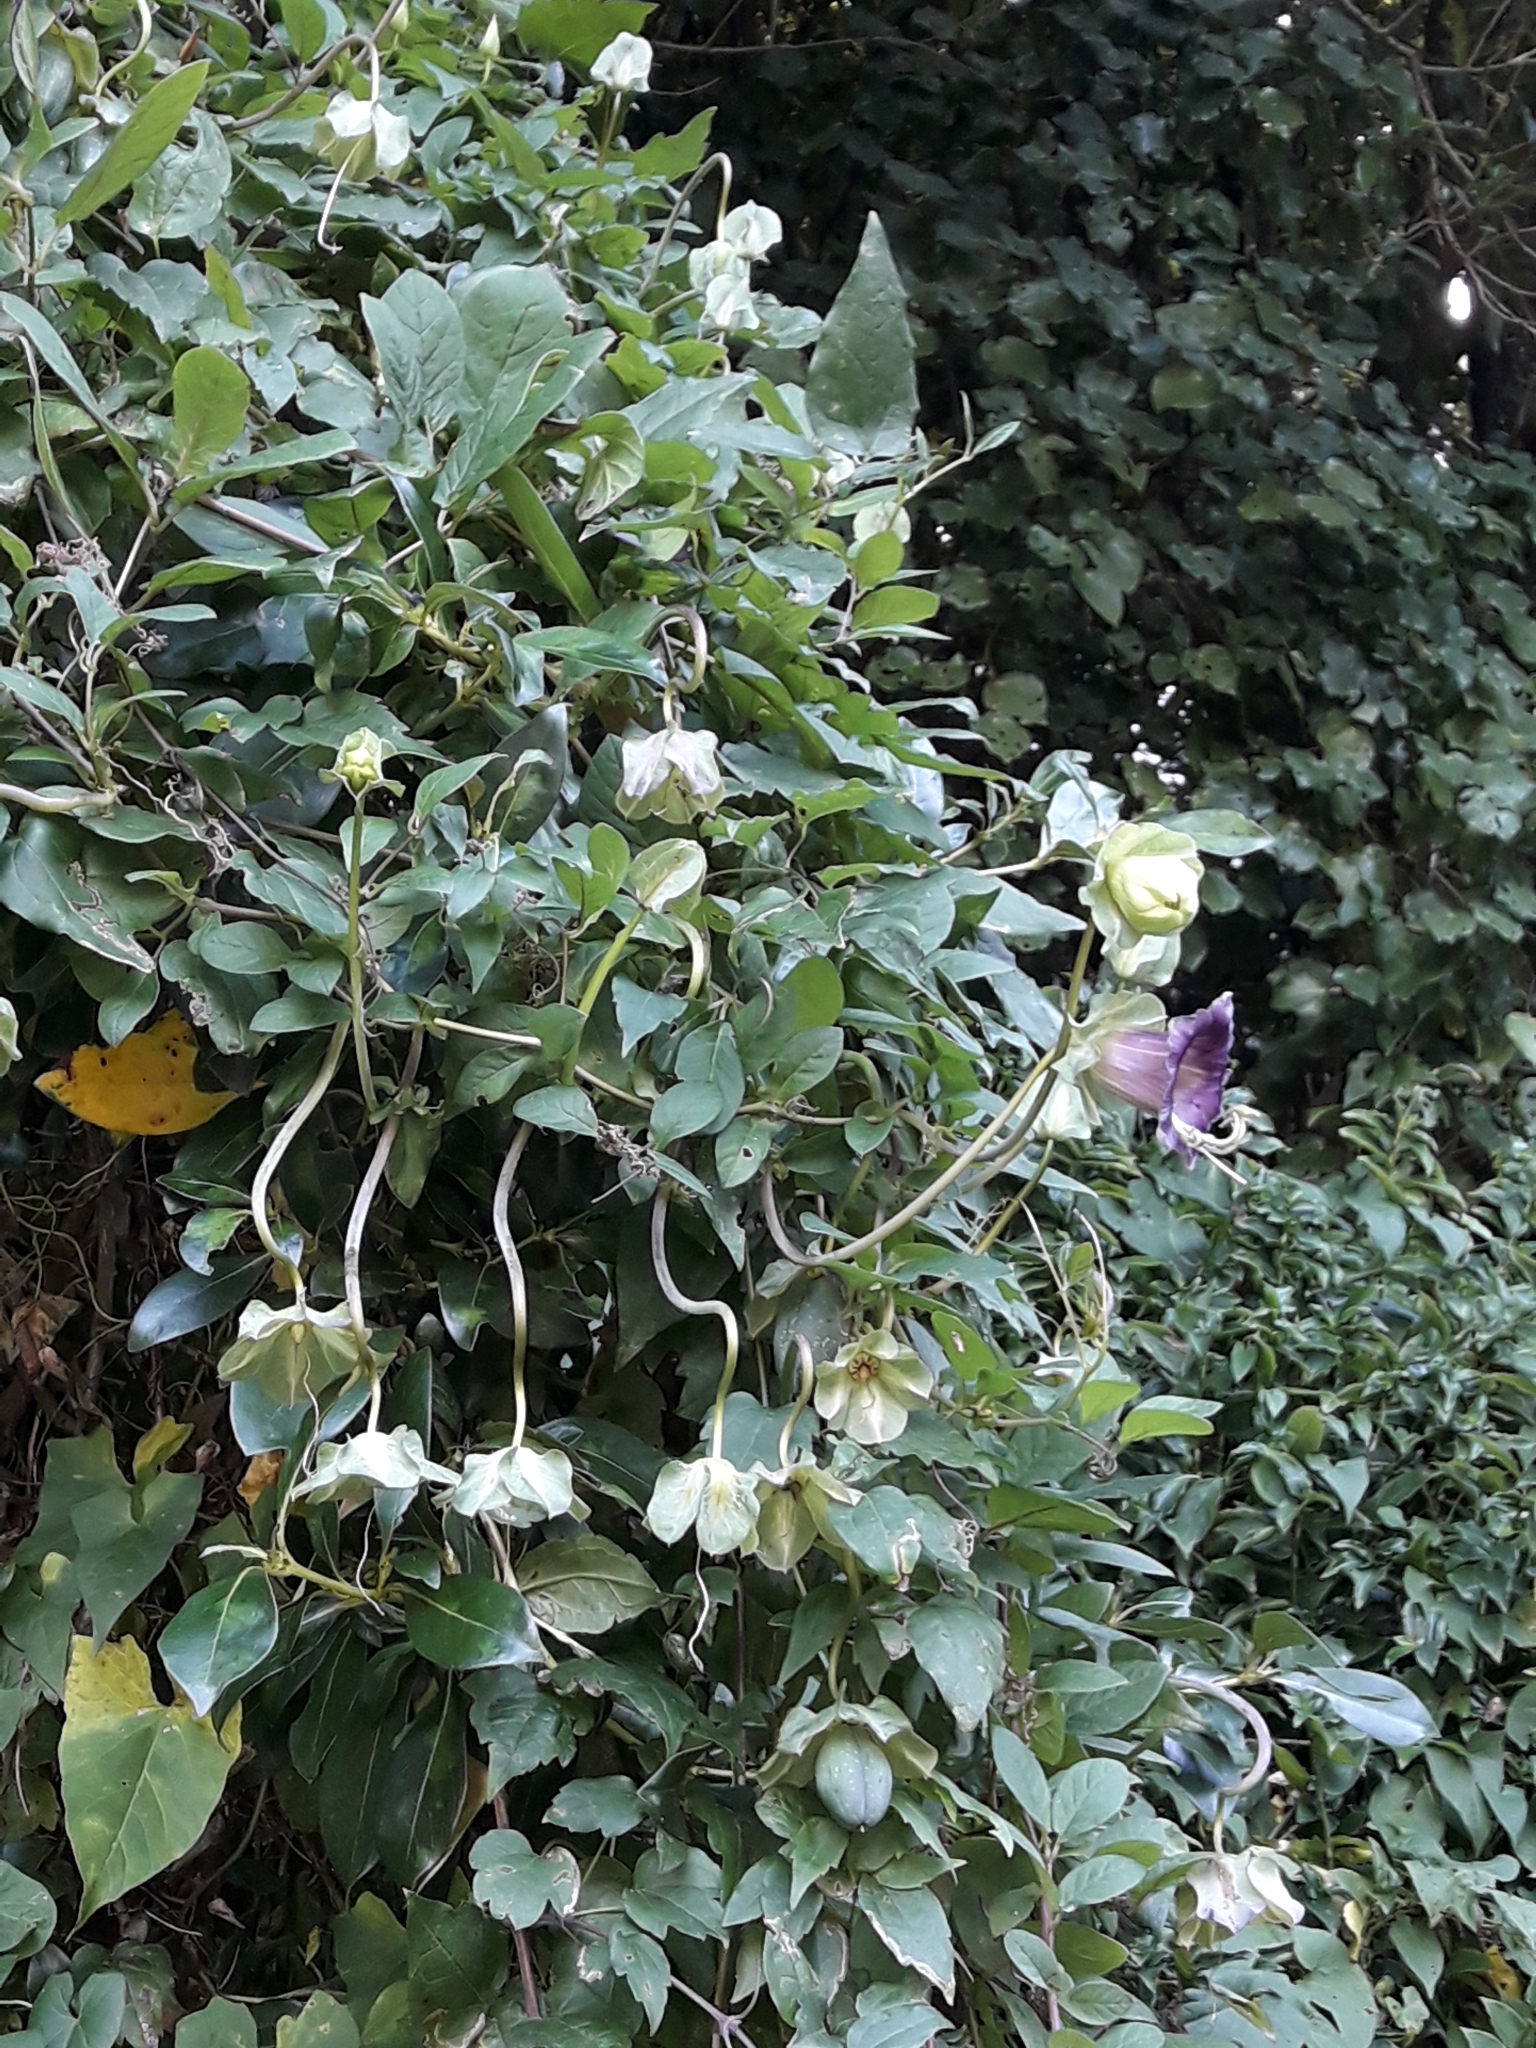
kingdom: Plantae
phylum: Tracheophyta
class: Magnoliopsida
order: Ericales
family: Polemoniaceae
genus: Cobaea
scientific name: Cobaea scandens
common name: Cup-and-saucer-vine
